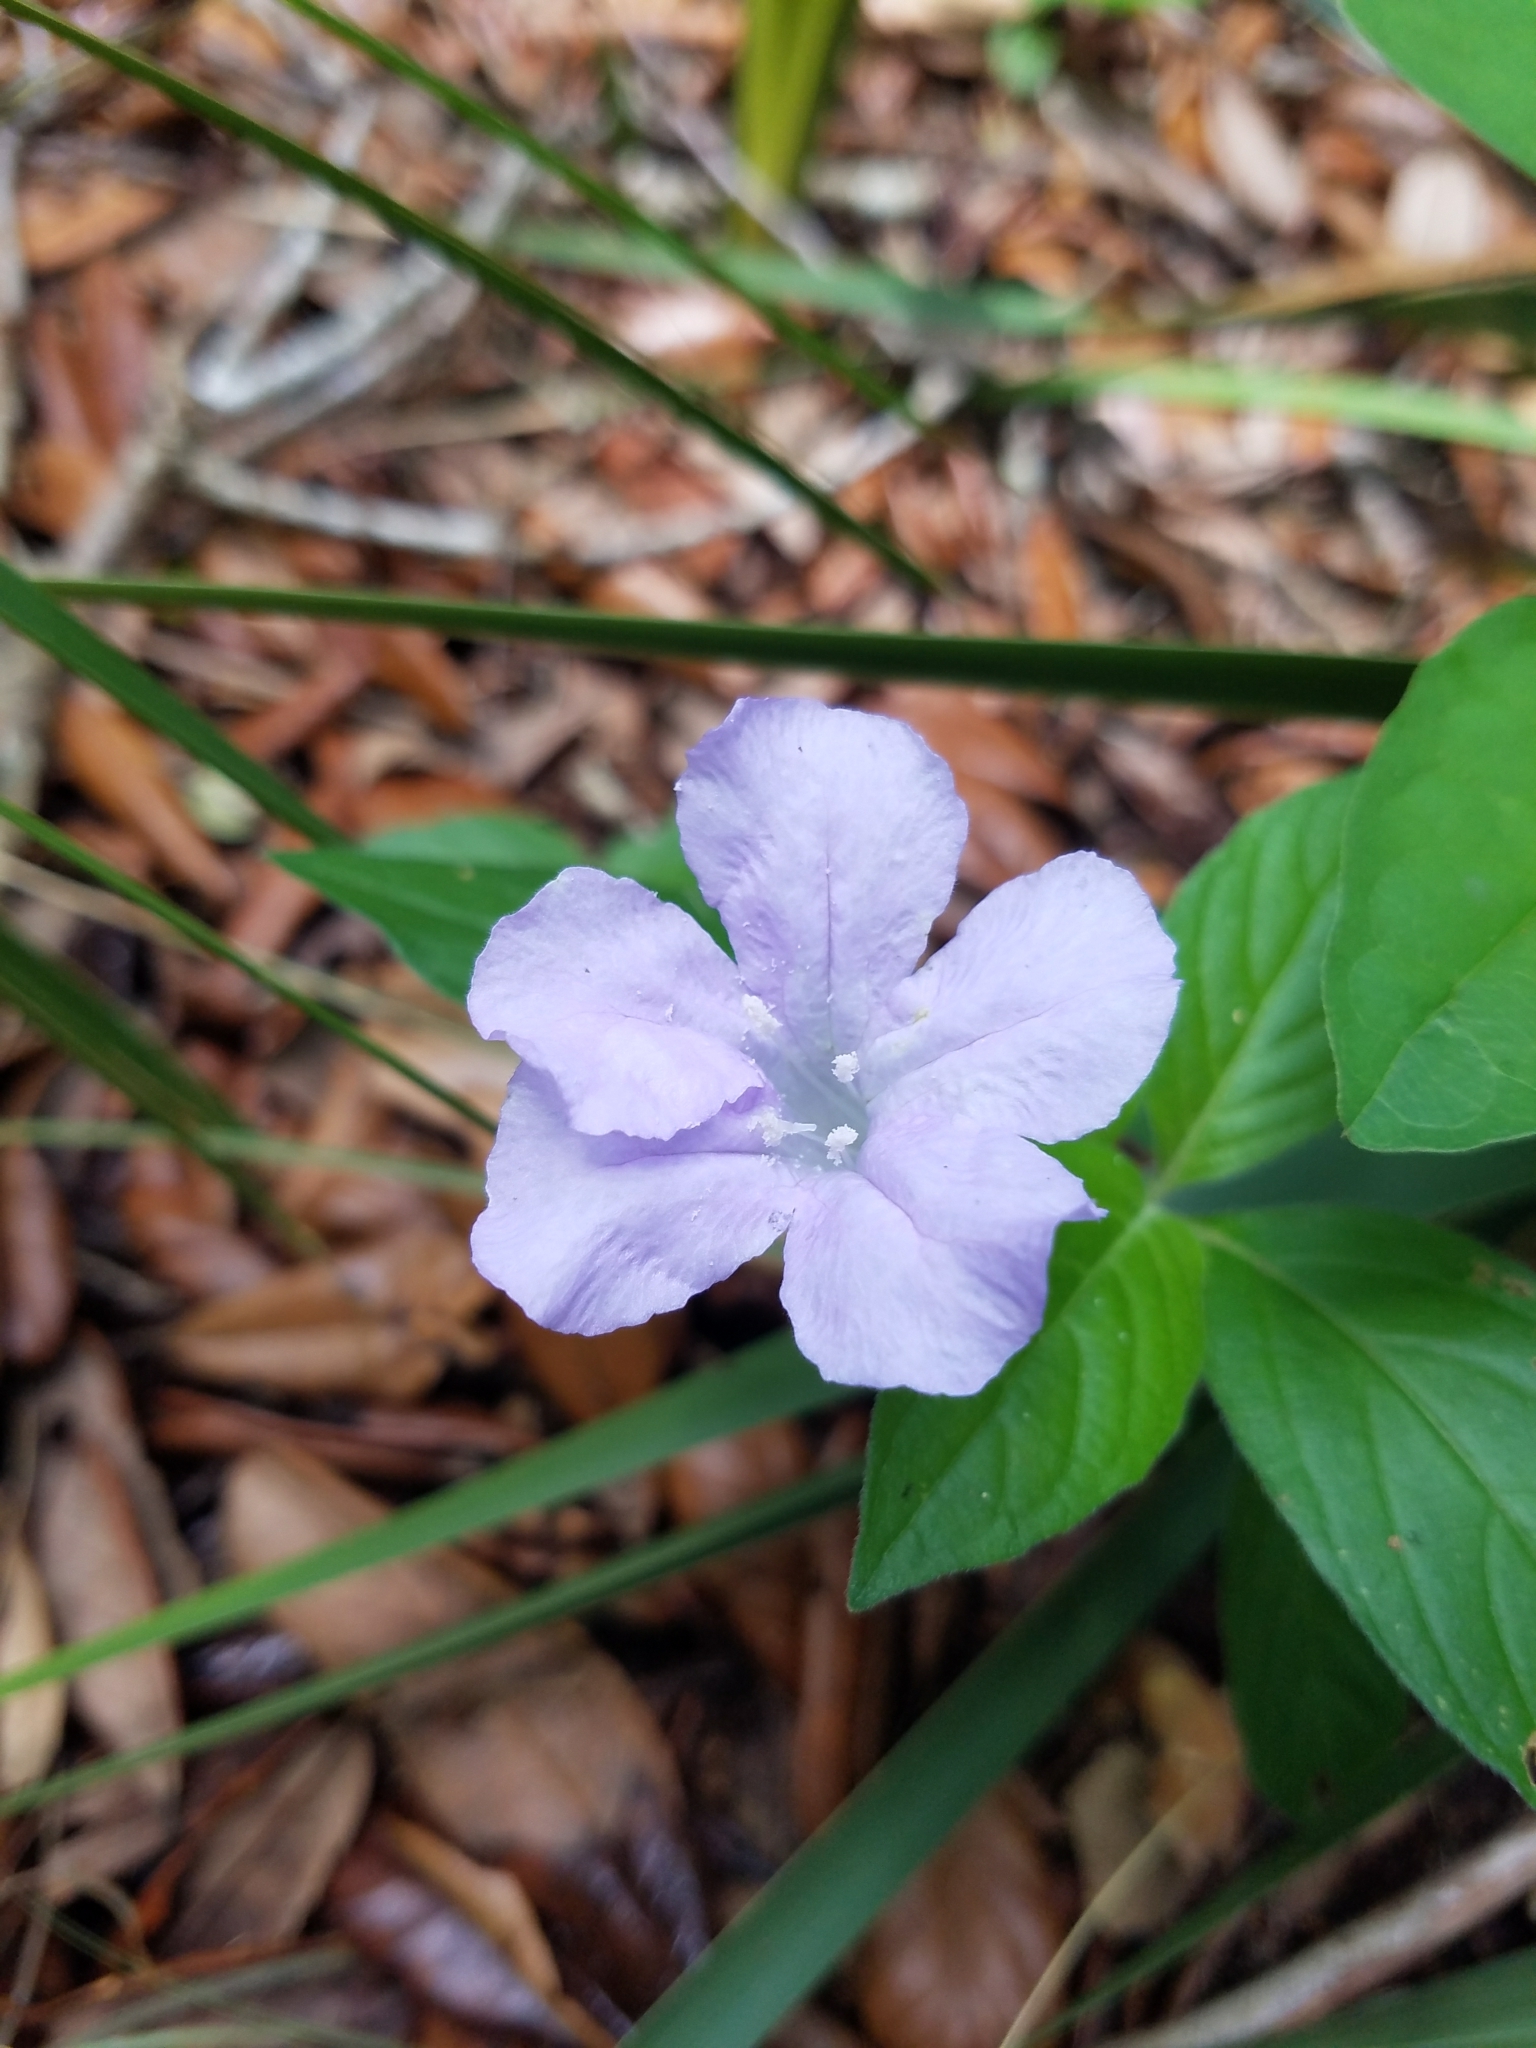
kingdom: Plantae
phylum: Tracheophyta
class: Magnoliopsida
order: Lamiales
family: Acanthaceae
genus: Ruellia
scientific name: Ruellia caroliniensis
